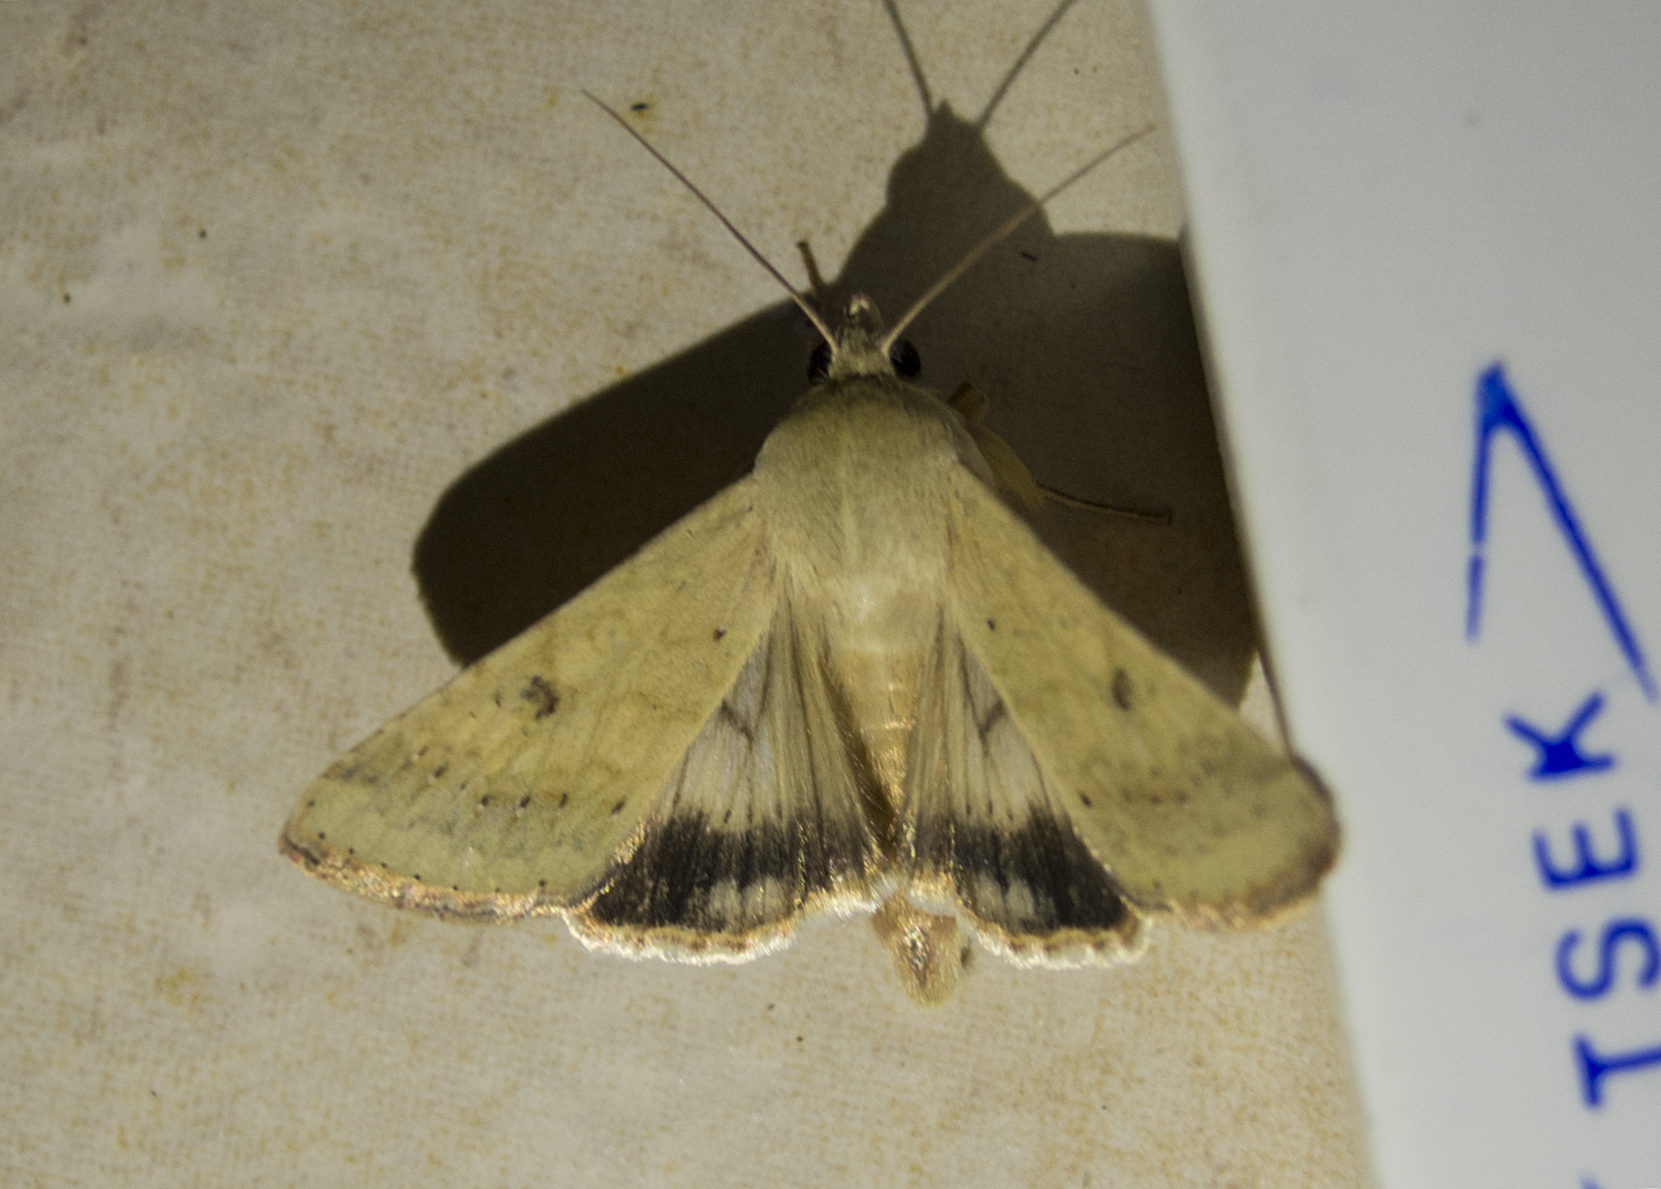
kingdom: Animalia
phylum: Arthropoda
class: Insecta
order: Lepidoptera
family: Noctuidae
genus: Helicoverpa
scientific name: Helicoverpa armigera
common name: Cotton bollworm
